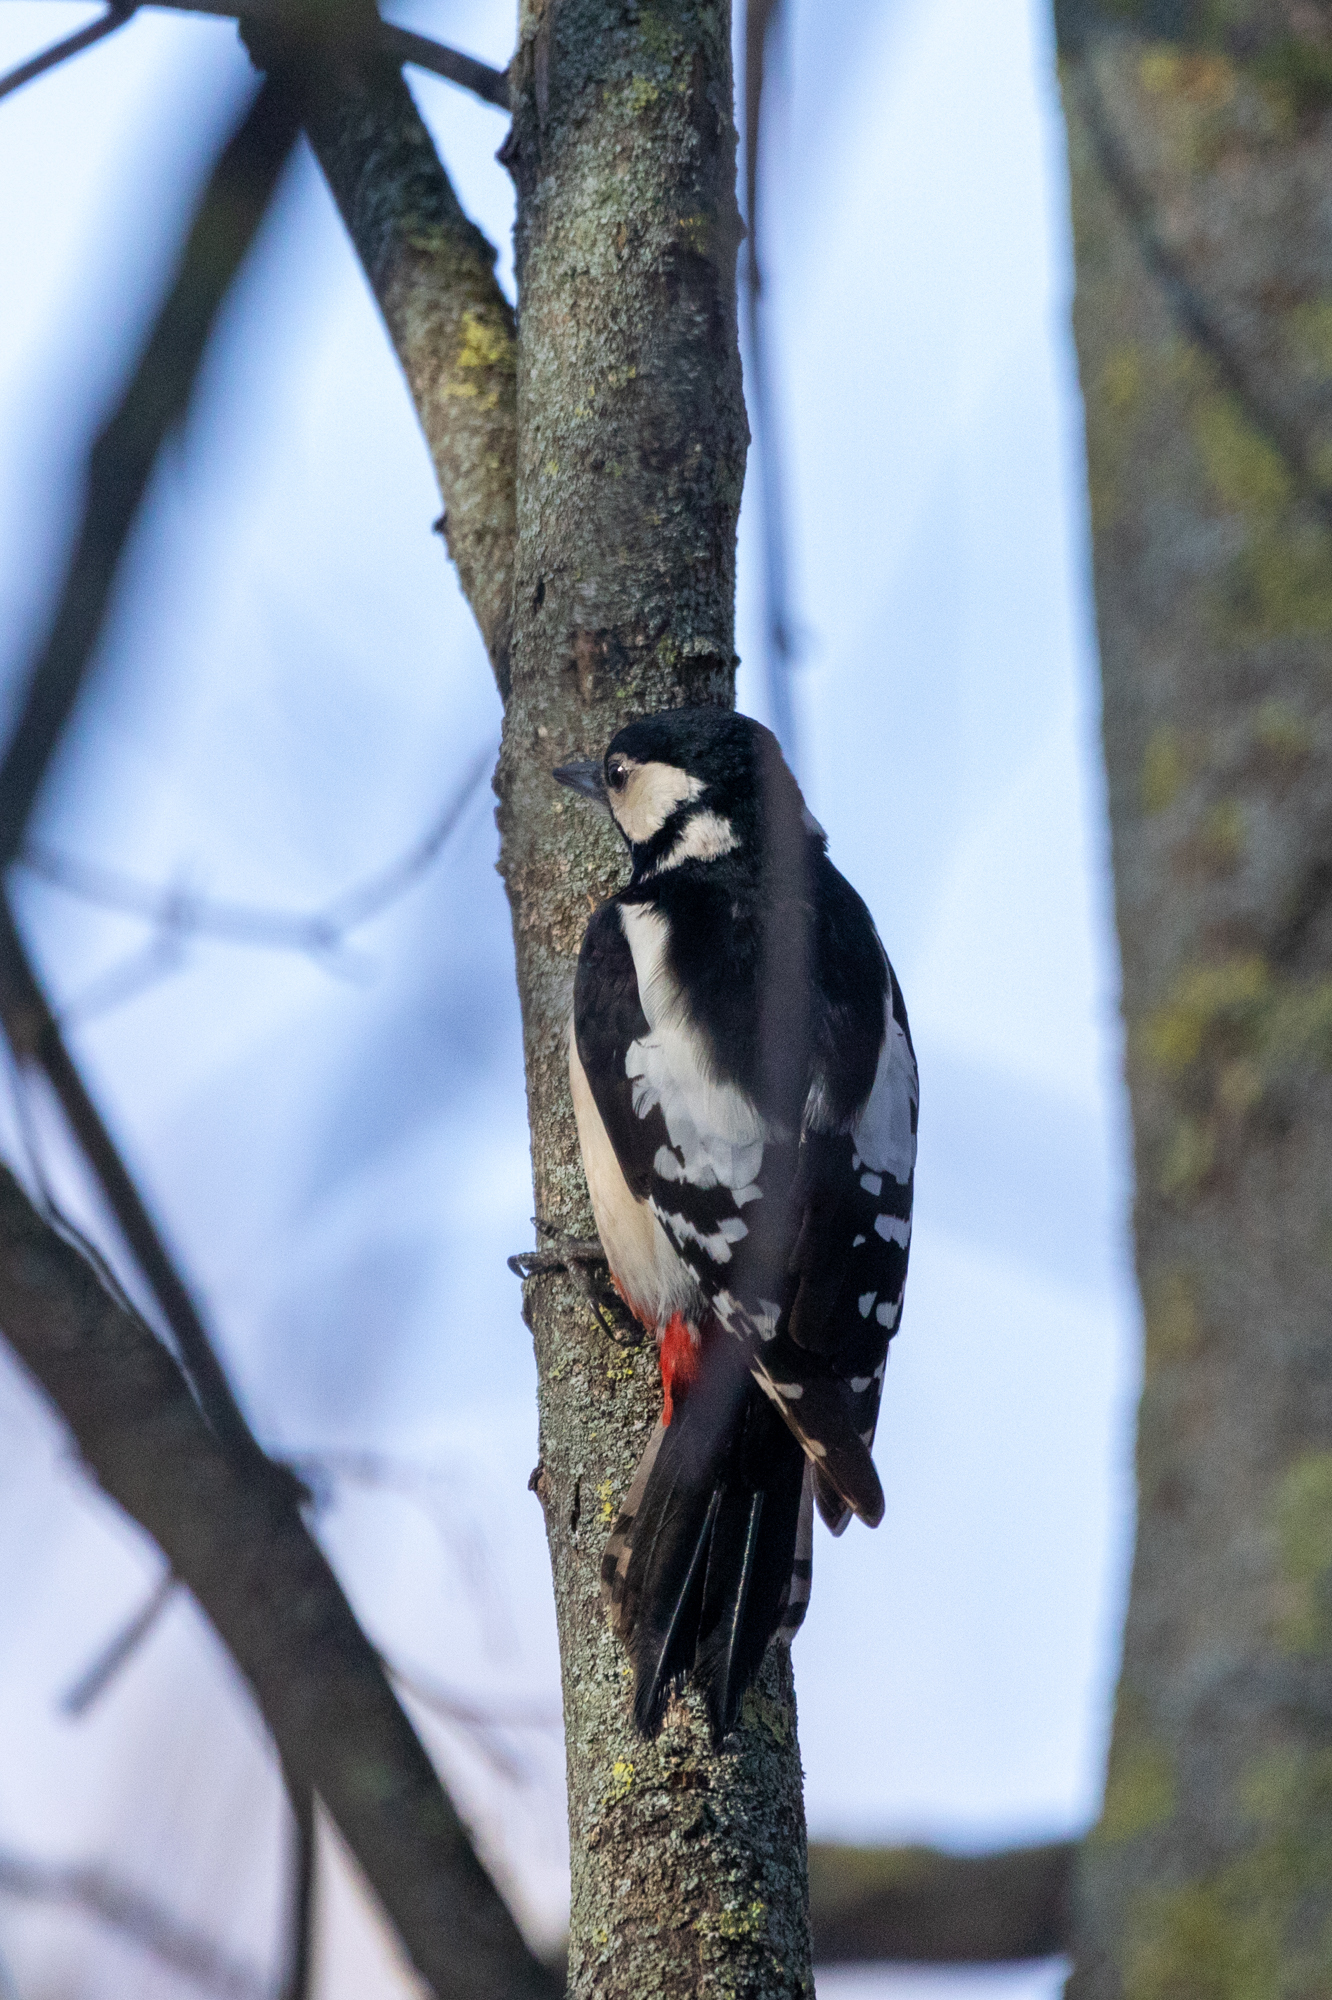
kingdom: Animalia
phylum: Chordata
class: Aves
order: Piciformes
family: Picidae
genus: Dendrocopos
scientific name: Dendrocopos major
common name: Great spotted woodpecker
